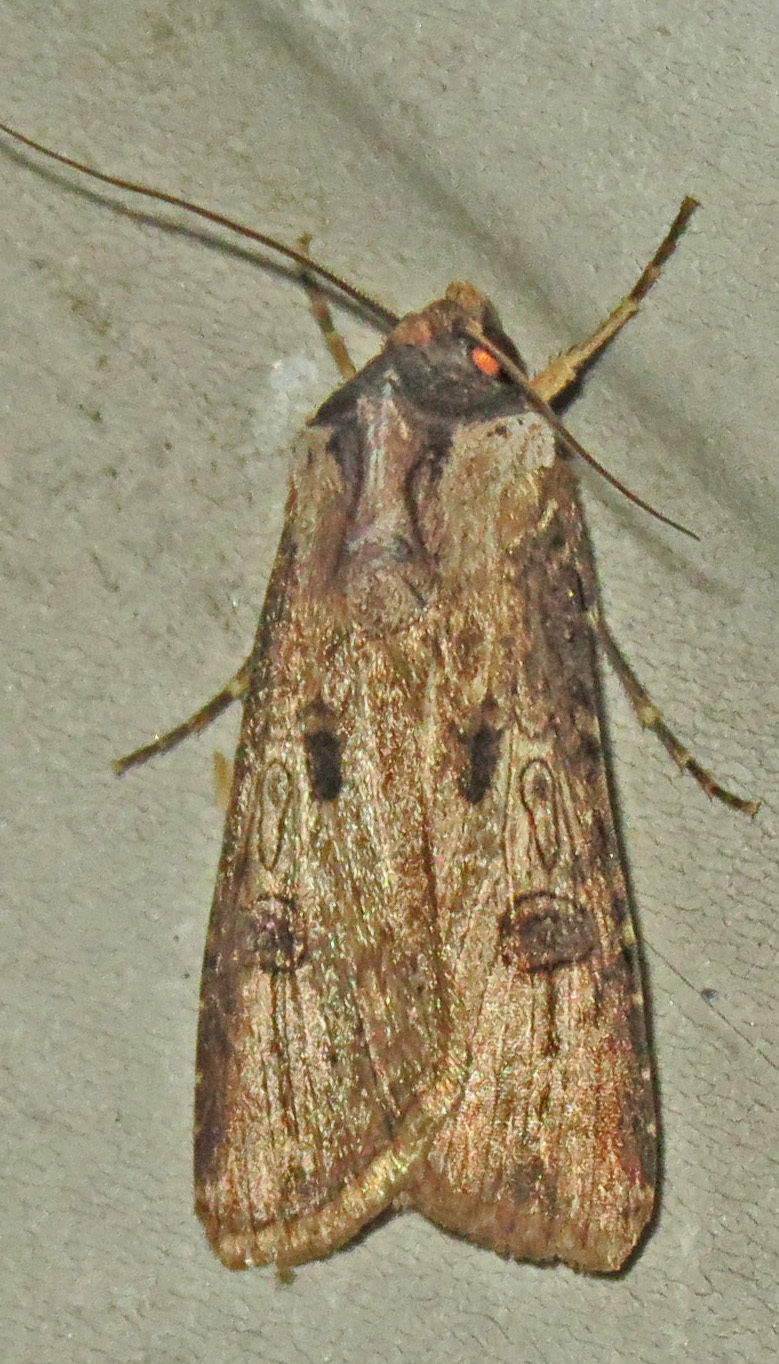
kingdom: Animalia
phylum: Arthropoda
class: Insecta
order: Lepidoptera
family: Noctuidae
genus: Agrotis
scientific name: Agrotis malefida
